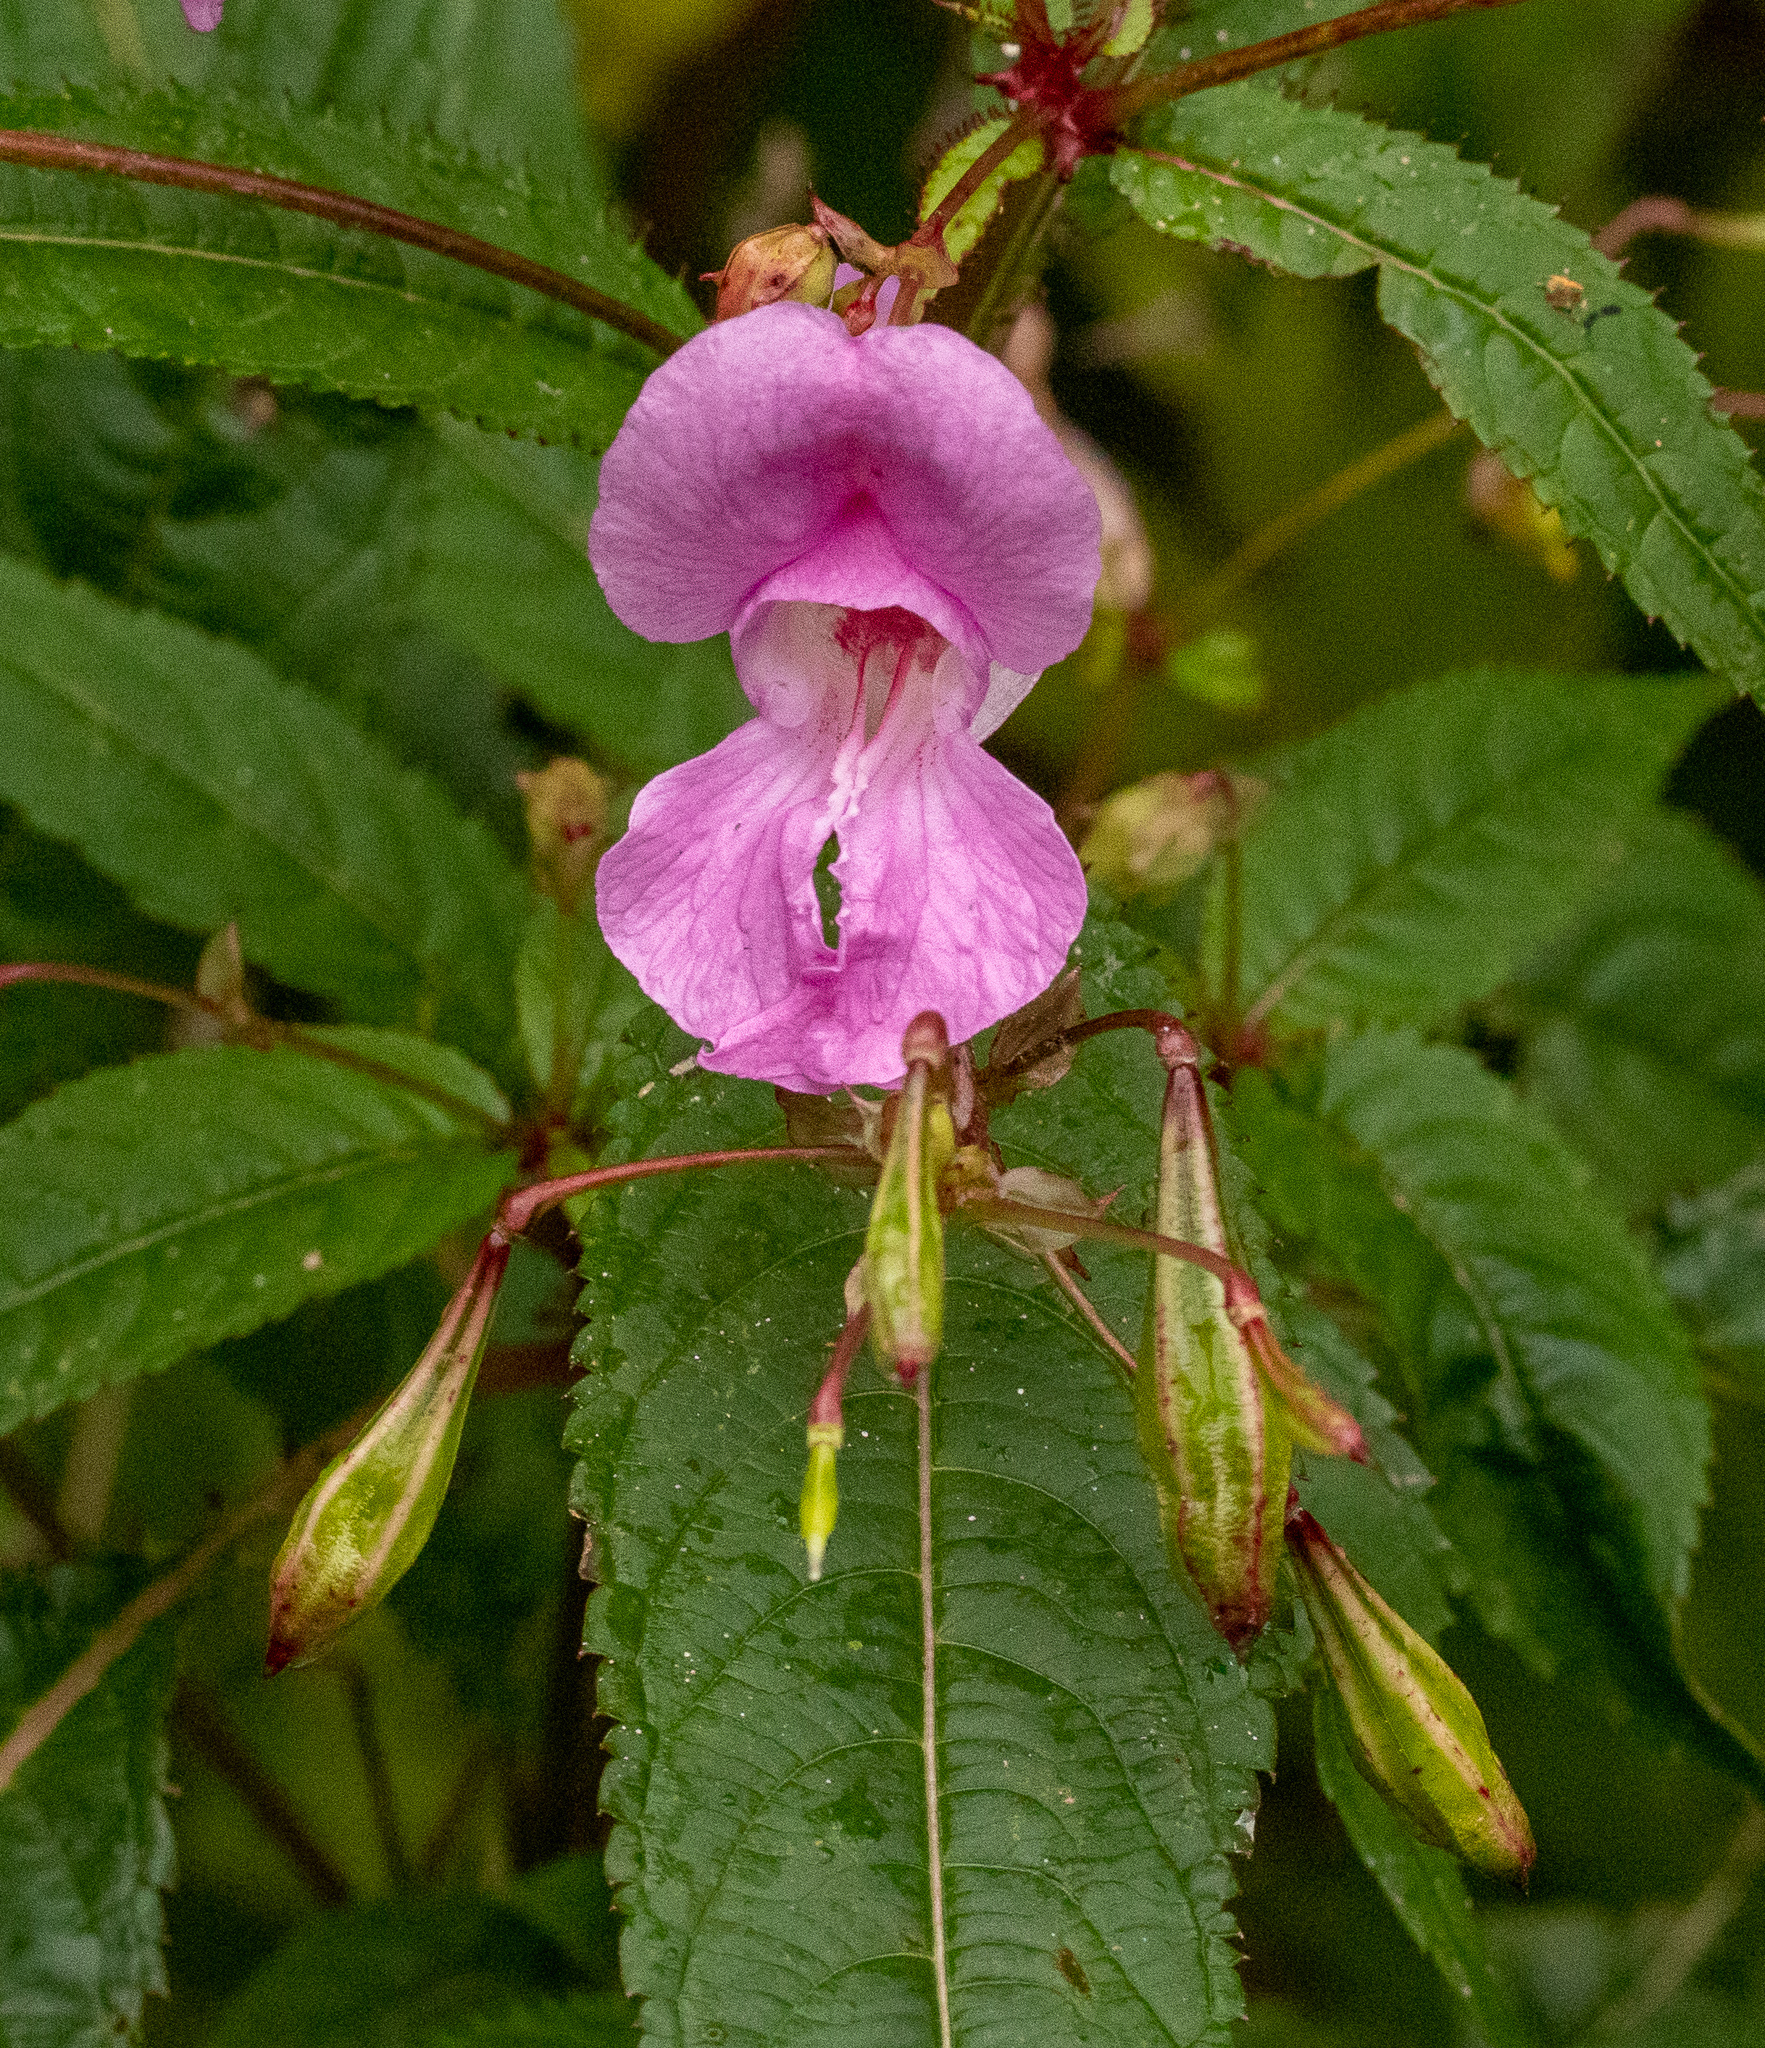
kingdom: Plantae
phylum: Tracheophyta
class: Magnoliopsida
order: Ericales
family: Balsaminaceae
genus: Impatiens
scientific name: Impatiens glandulifera
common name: Himalayan balsam
